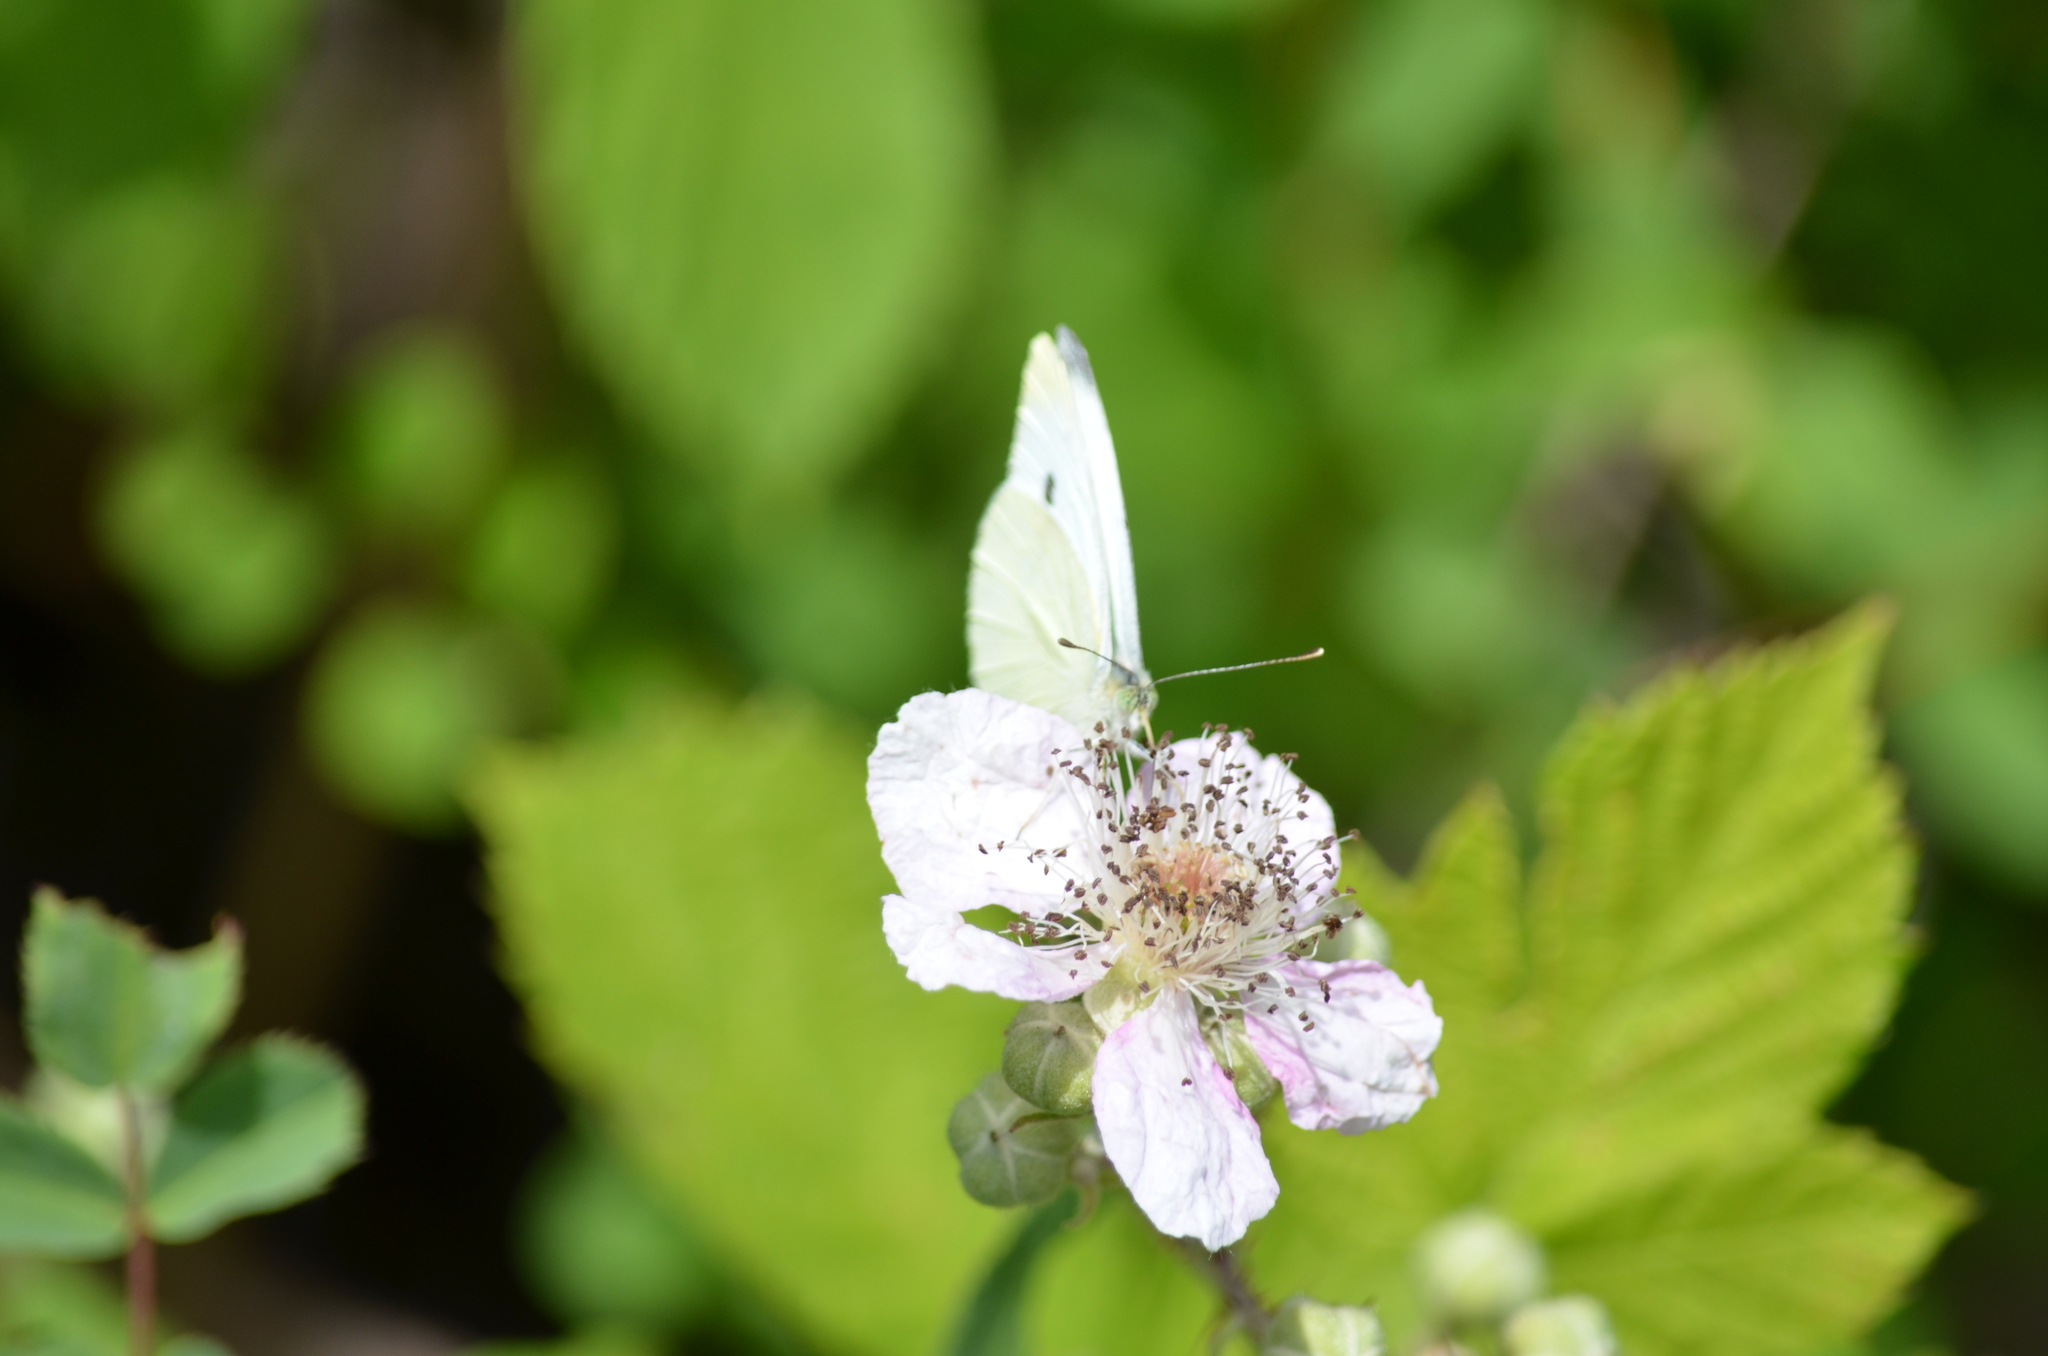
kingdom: Animalia
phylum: Arthropoda
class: Insecta
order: Lepidoptera
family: Pieridae
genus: Pieris
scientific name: Pieris rapae
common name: Small white
